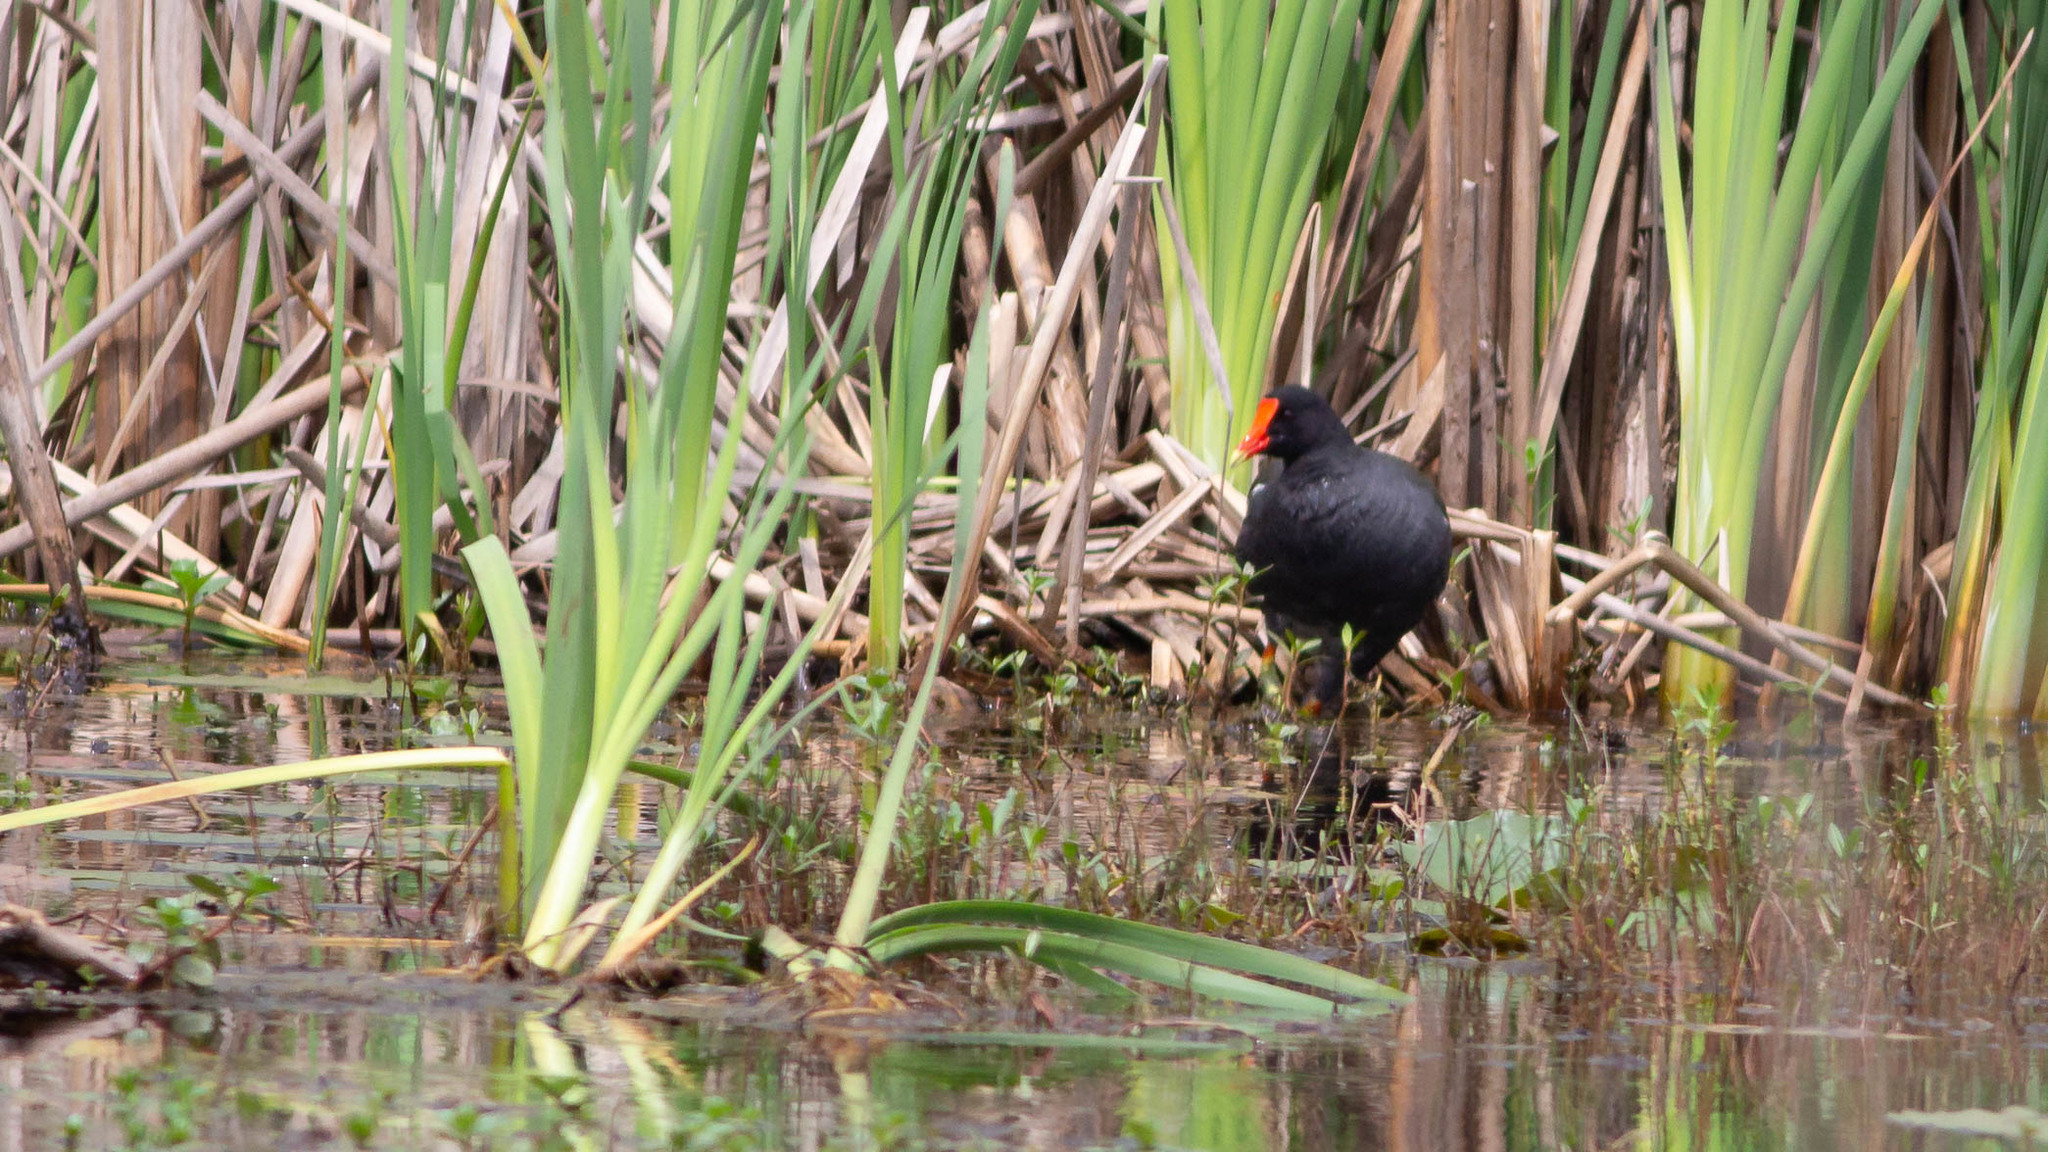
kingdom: Animalia
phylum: Chordata
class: Aves
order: Gruiformes
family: Rallidae
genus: Gallinula
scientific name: Gallinula chloropus
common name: Common moorhen
